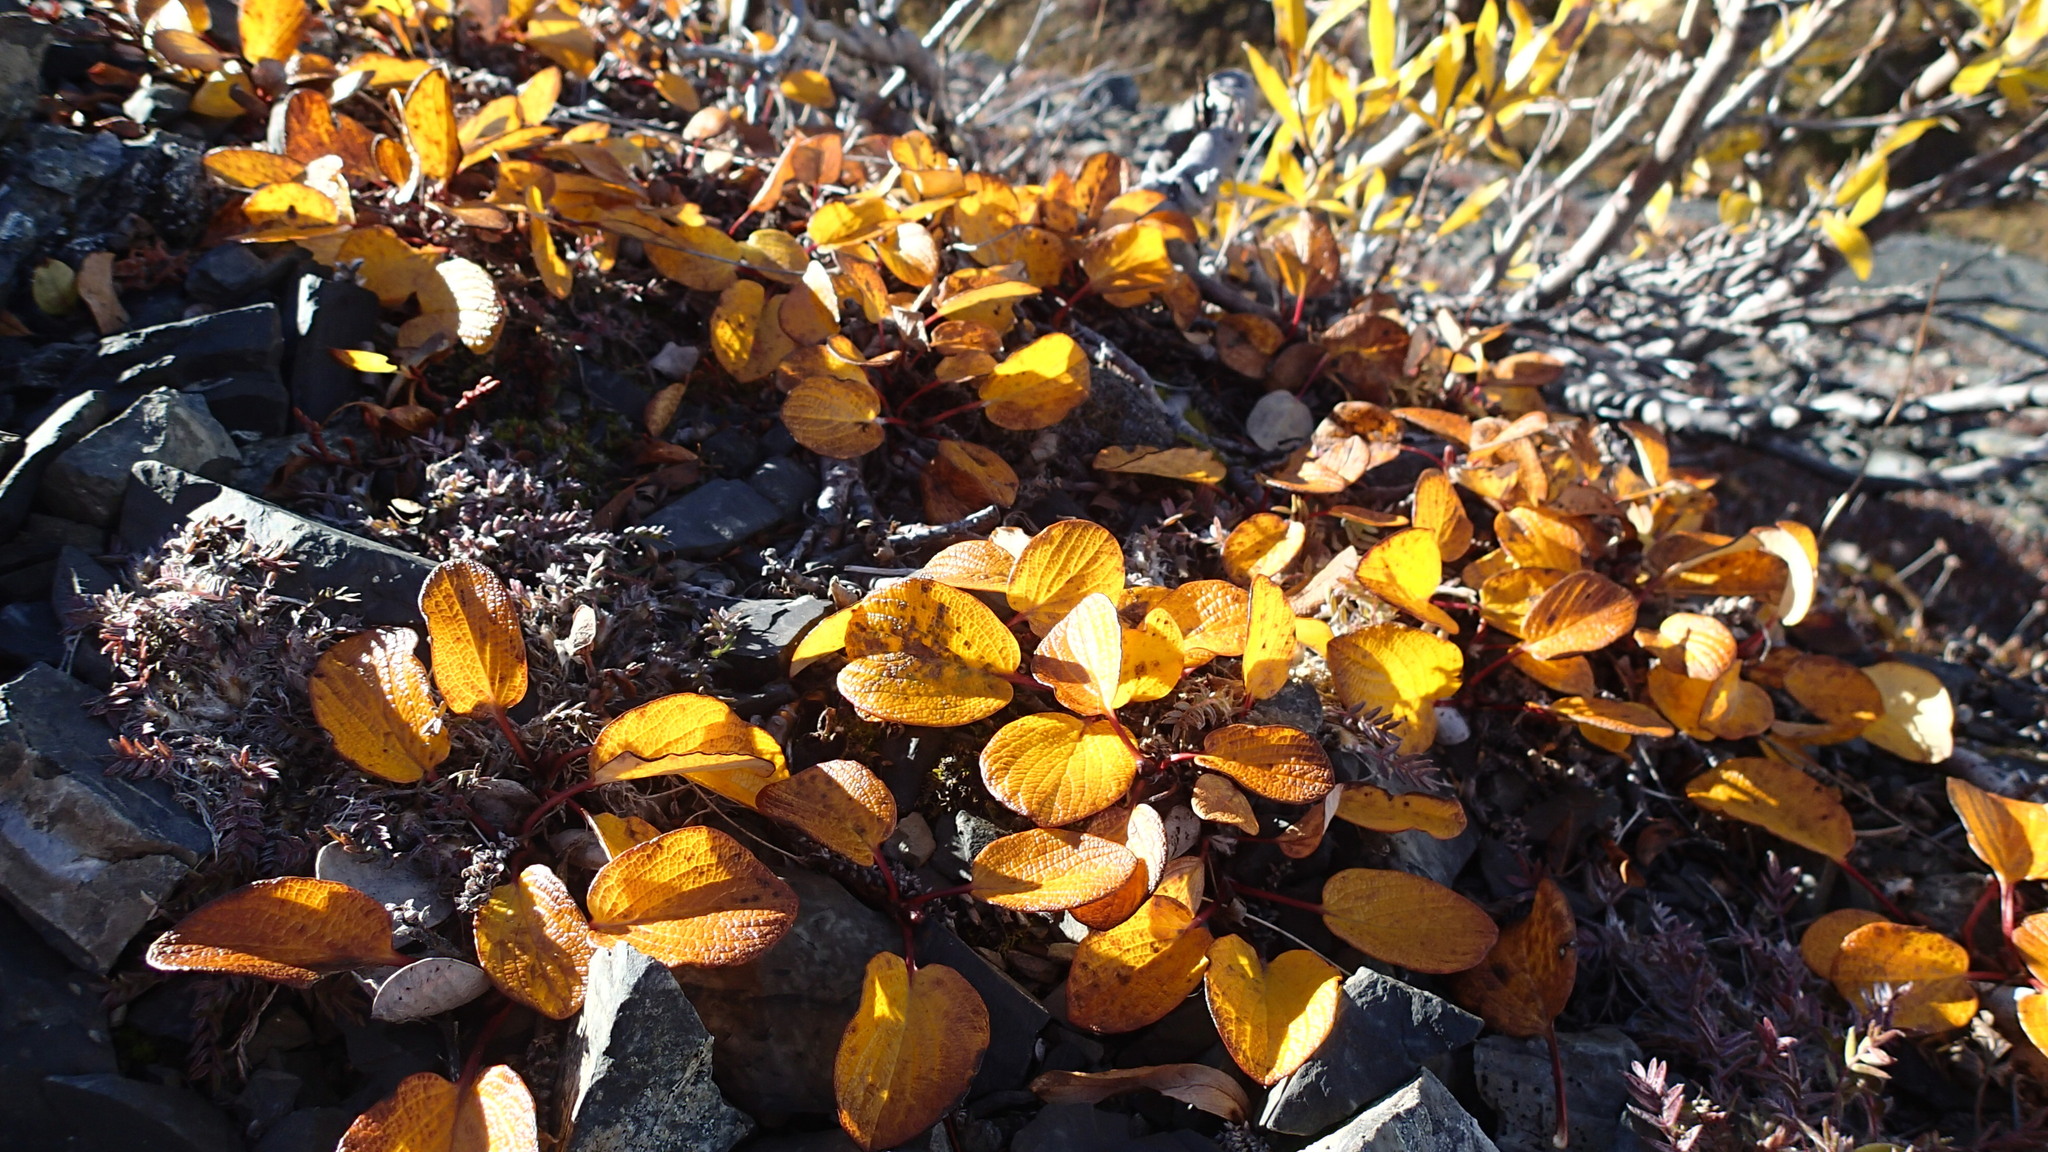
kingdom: Plantae
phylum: Tracheophyta
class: Magnoliopsida
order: Malpighiales
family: Salicaceae
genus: Salix
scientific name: Salix reticulata
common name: Net-leaved willow
